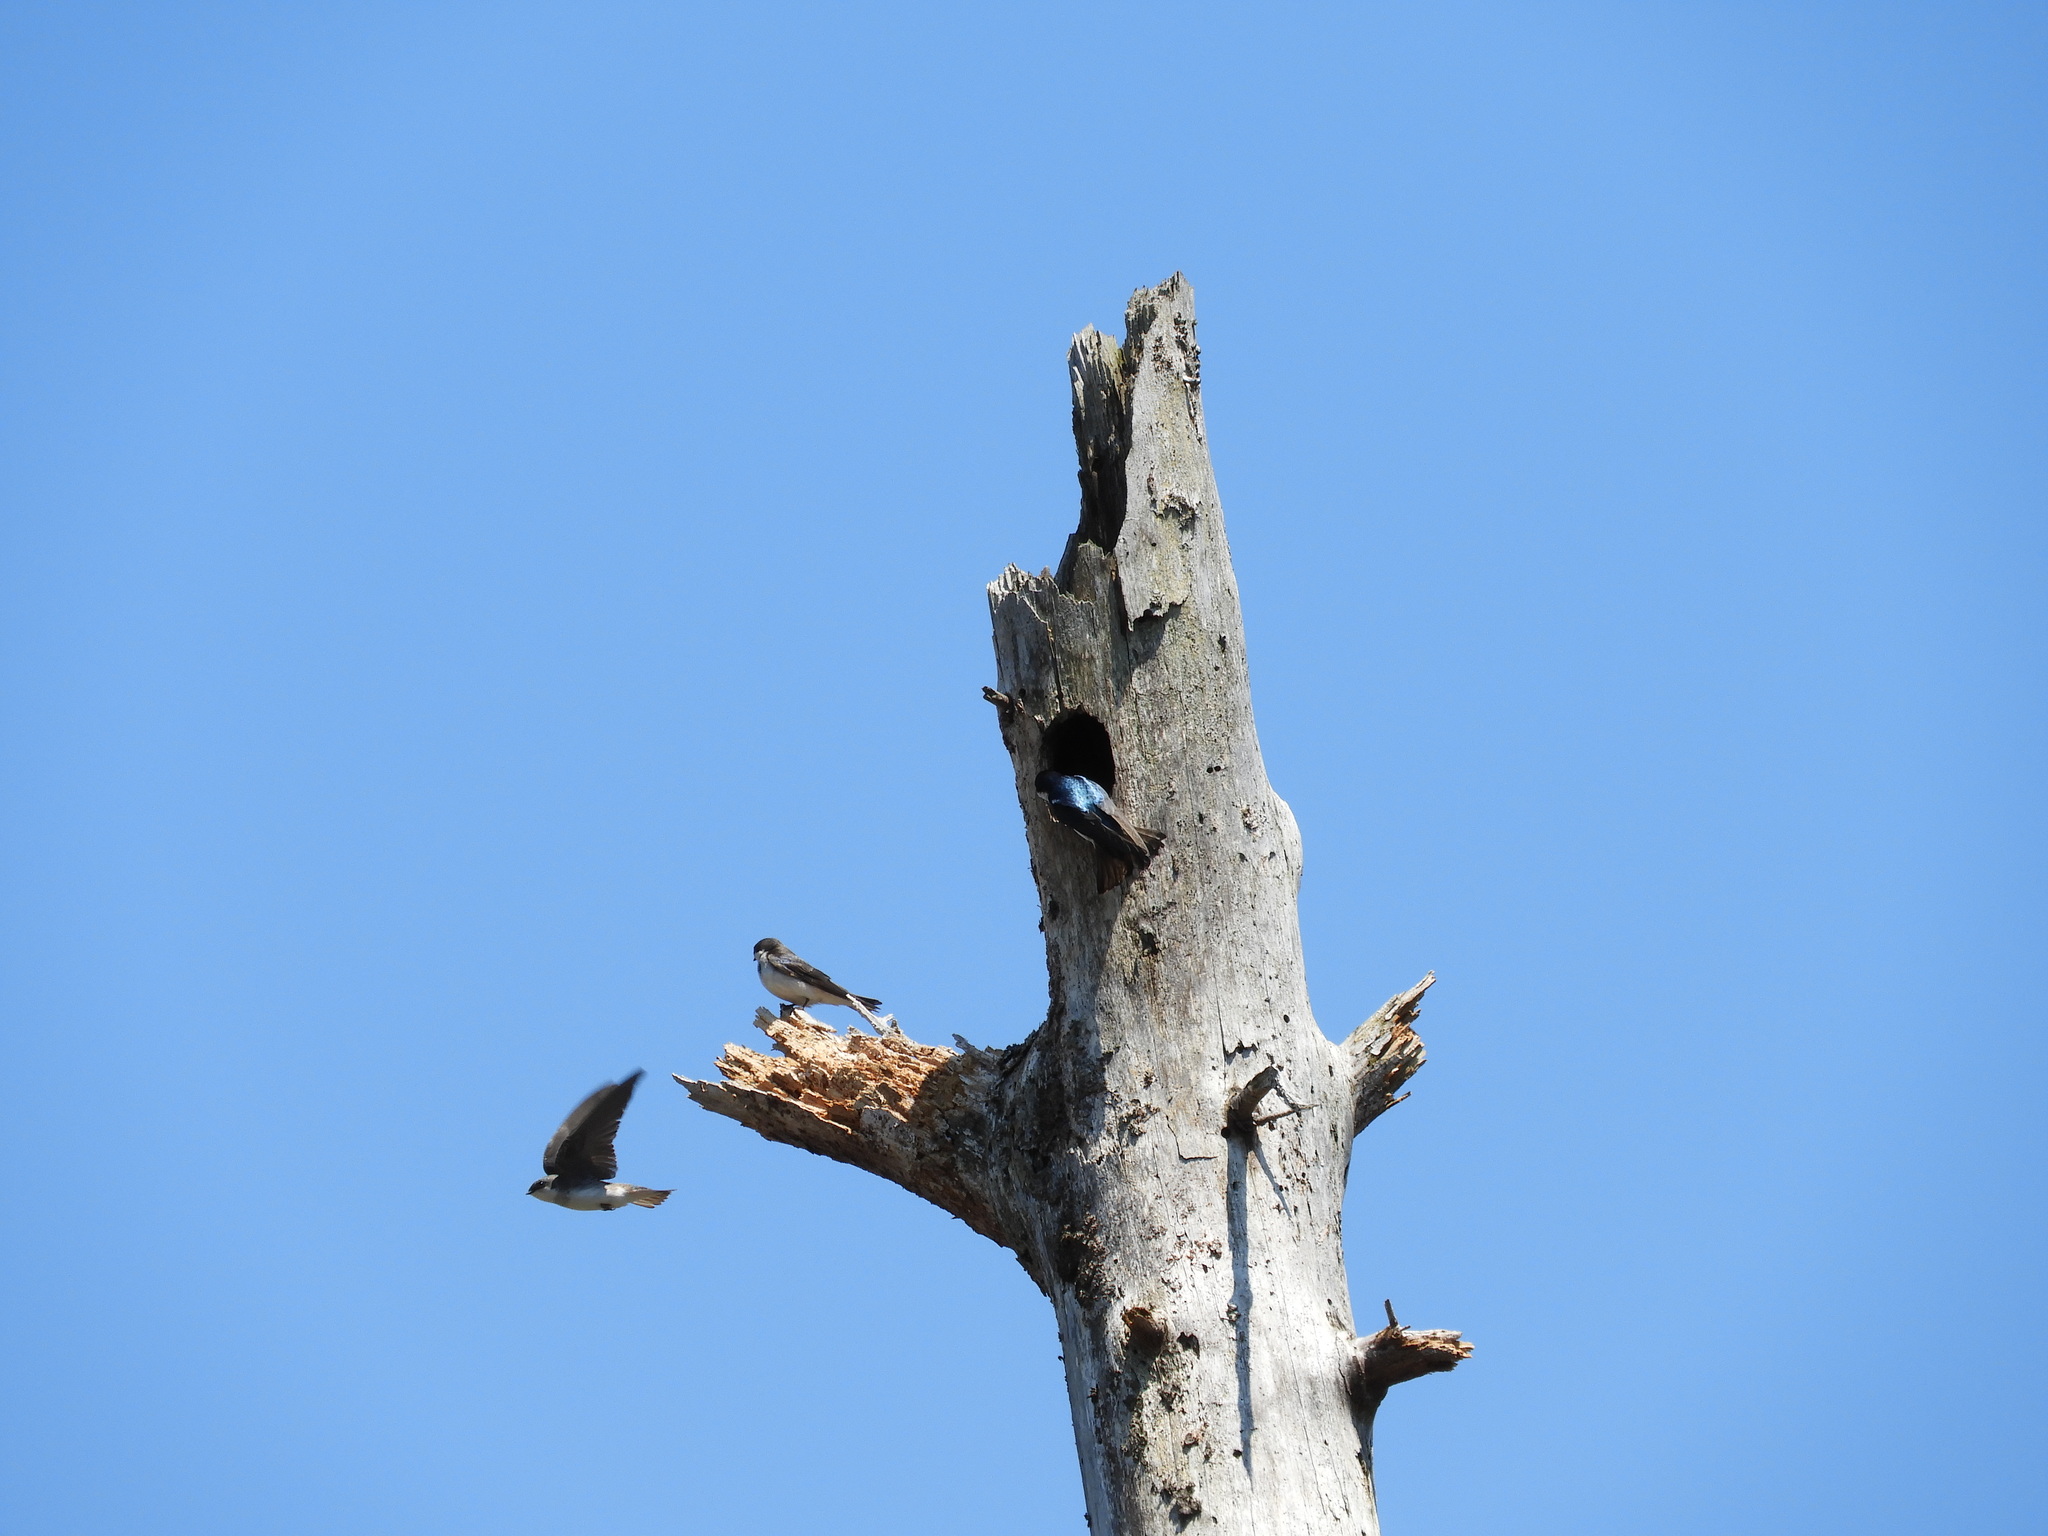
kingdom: Animalia
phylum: Chordata
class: Aves
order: Passeriformes
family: Hirundinidae
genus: Tachycineta
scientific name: Tachycineta bicolor
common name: Tree swallow
